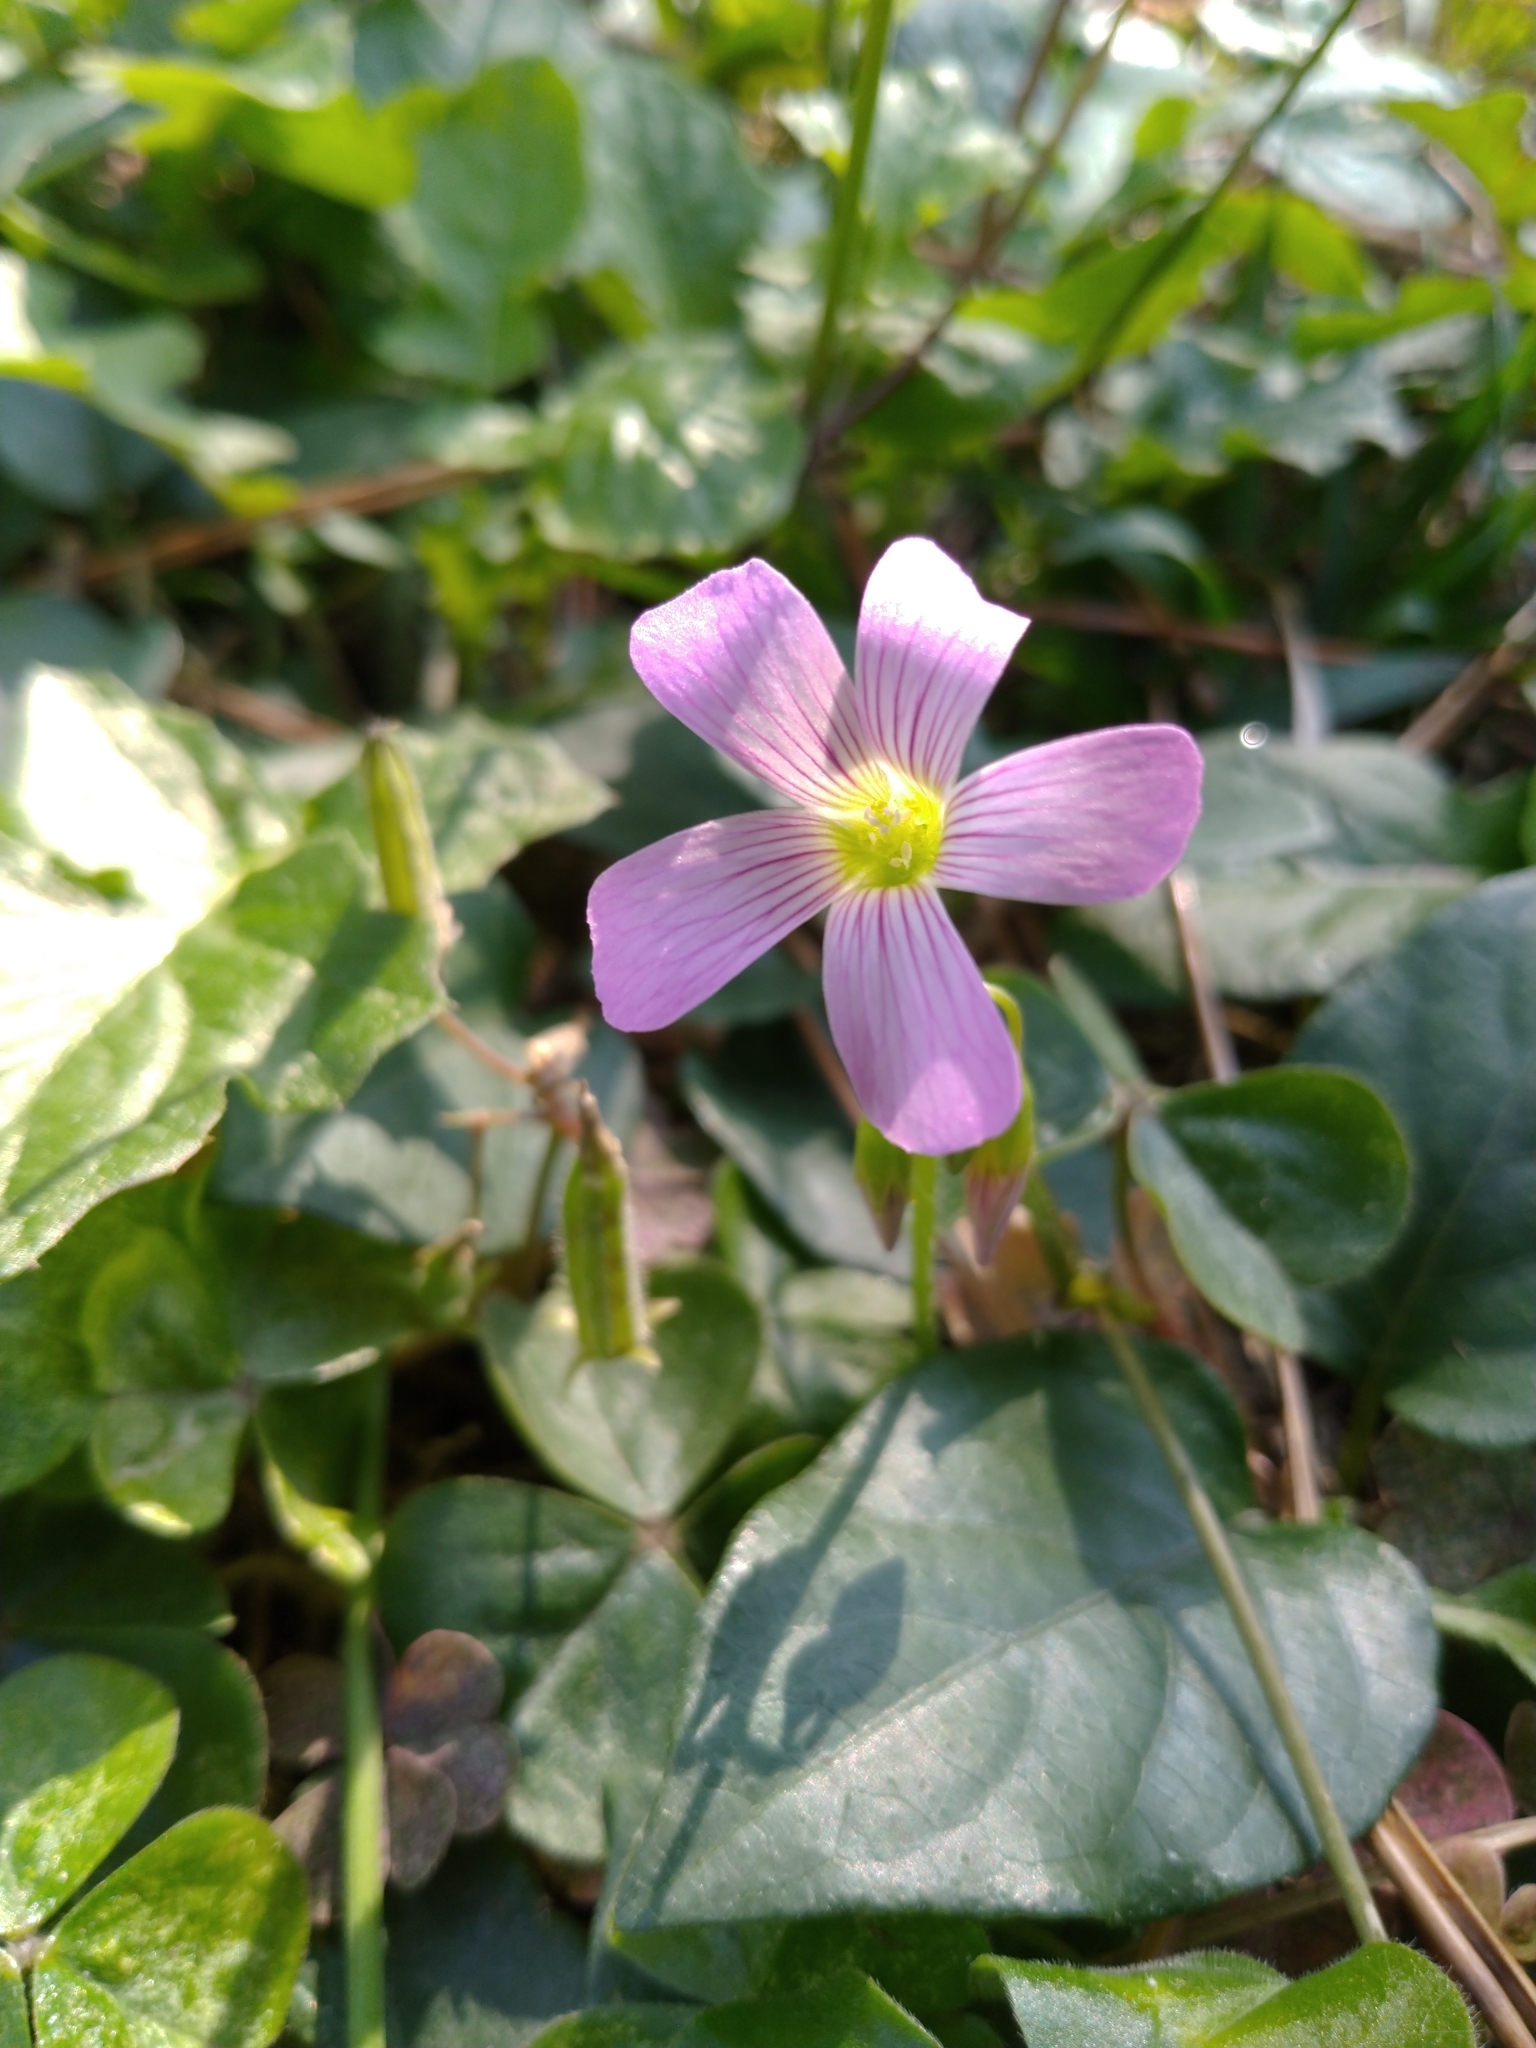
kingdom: Plantae
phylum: Tracheophyta
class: Magnoliopsida
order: Oxalidales
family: Oxalidaceae
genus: Oxalis
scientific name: Oxalis debilis
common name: Large-flowered pink-sorrel
